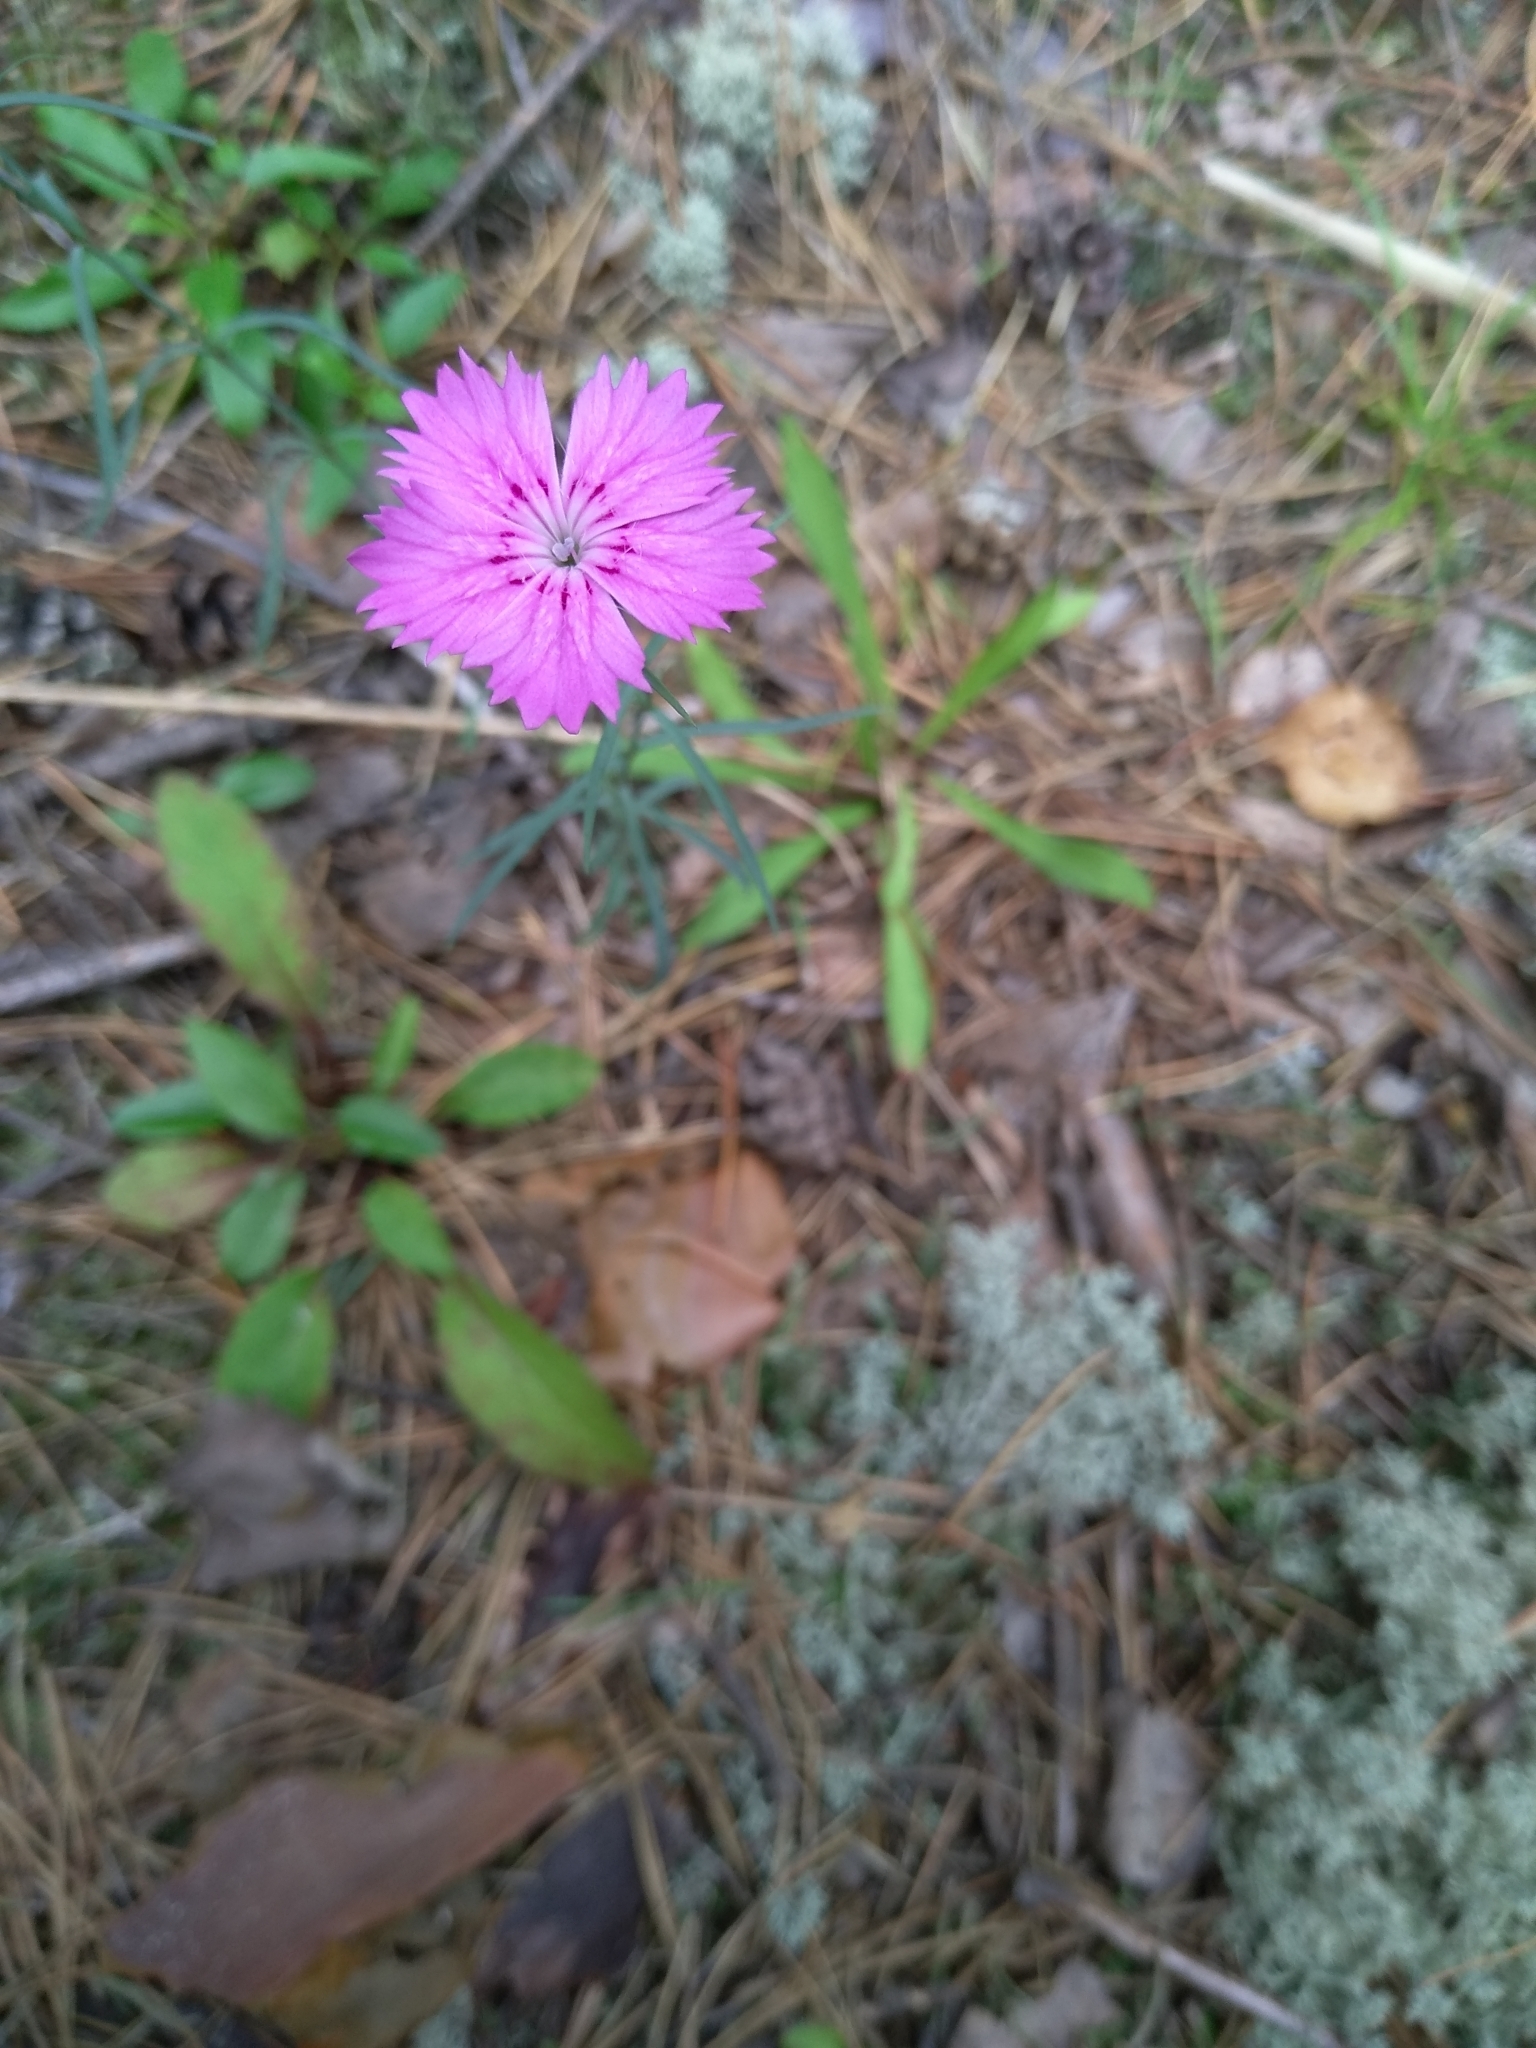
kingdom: Plantae
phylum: Tracheophyta
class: Magnoliopsida
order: Caryophyllales
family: Caryophyllaceae
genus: Dianthus
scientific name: Dianthus chinensis
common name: Rainbow pink
